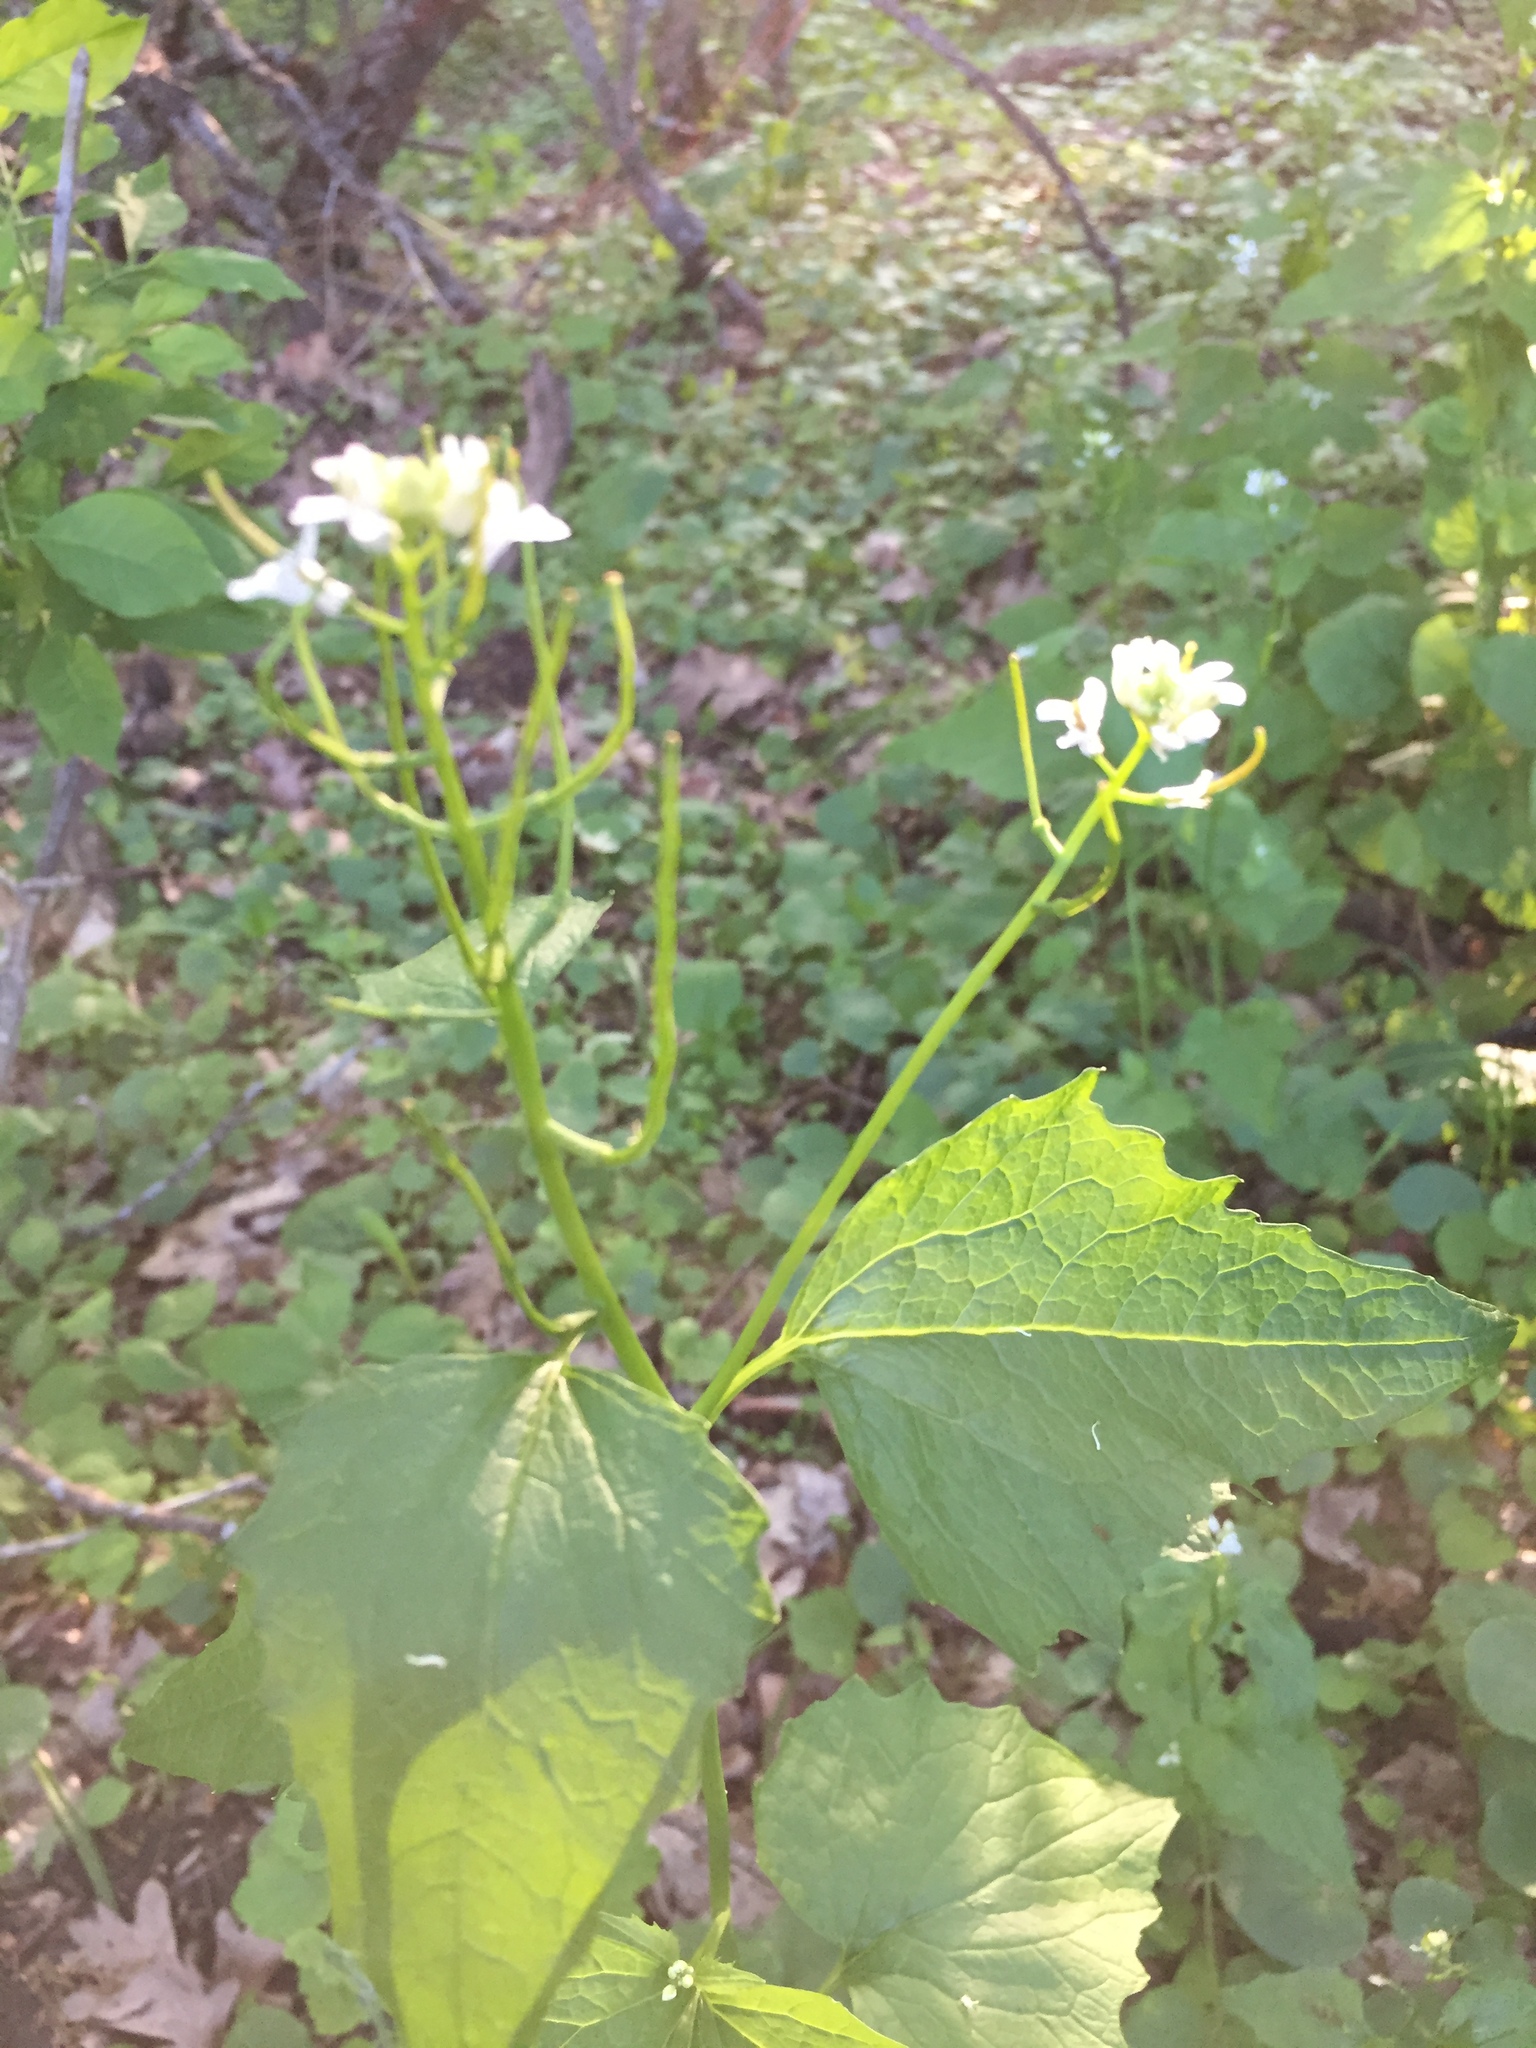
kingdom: Plantae
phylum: Tracheophyta
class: Magnoliopsida
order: Brassicales
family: Brassicaceae
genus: Alliaria
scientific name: Alliaria petiolata
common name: Garlic mustard
